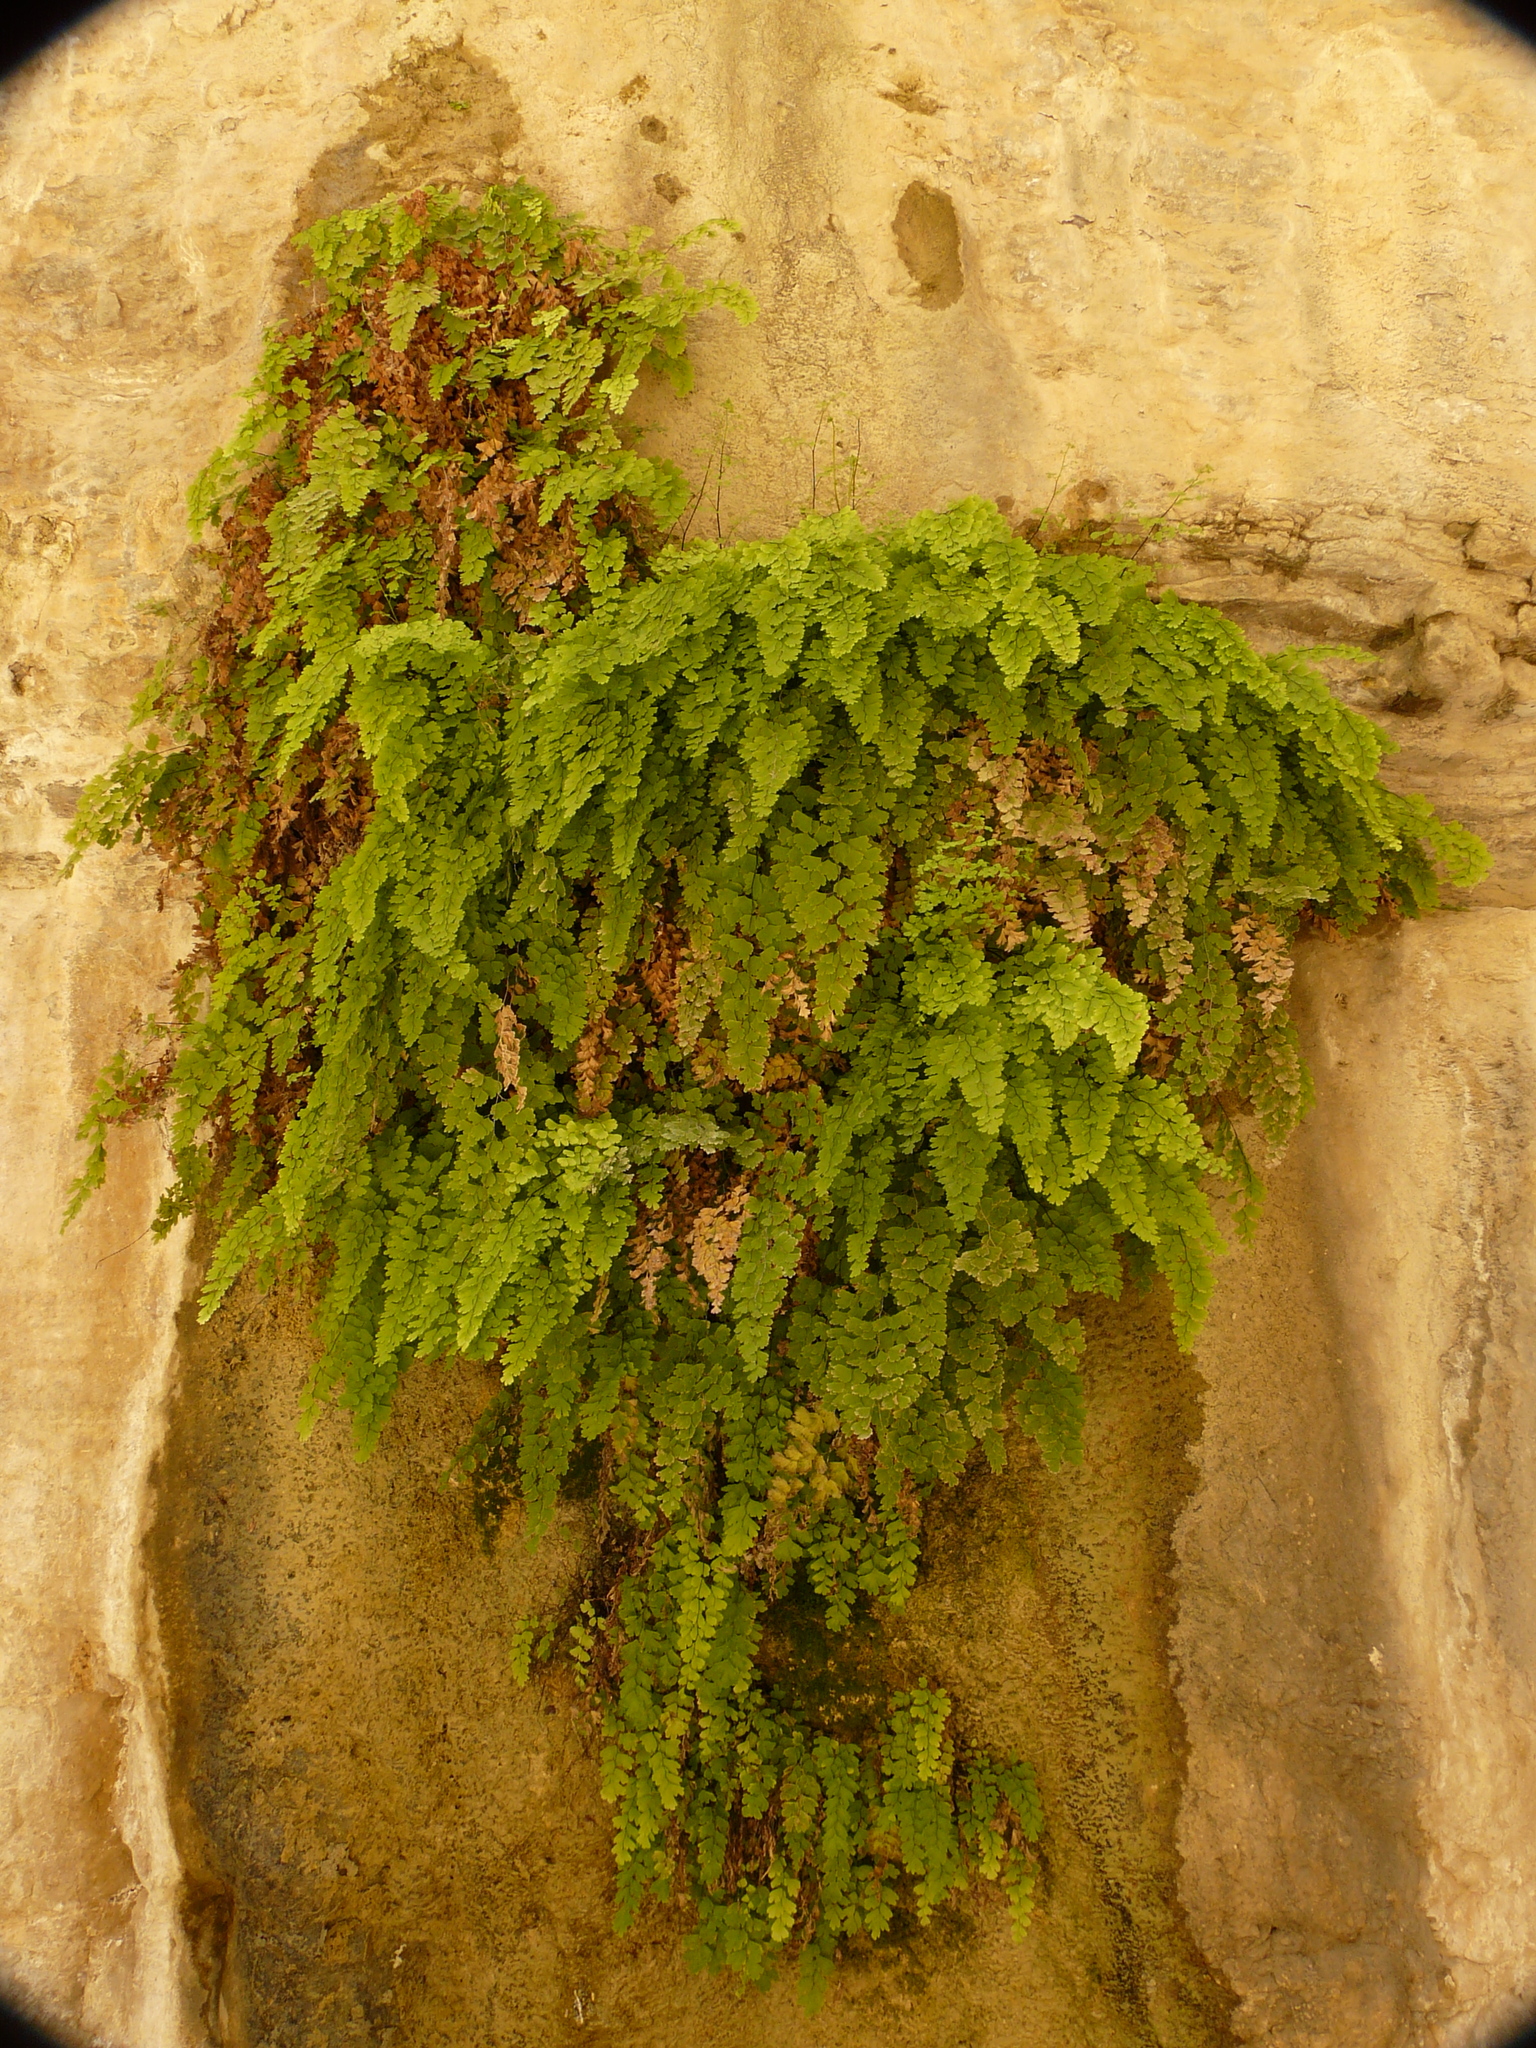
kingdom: Plantae
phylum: Tracheophyta
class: Polypodiopsida
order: Polypodiales
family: Pteridaceae
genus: Adiantum
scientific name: Adiantum capillus-veneris
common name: Maidenhair fern
